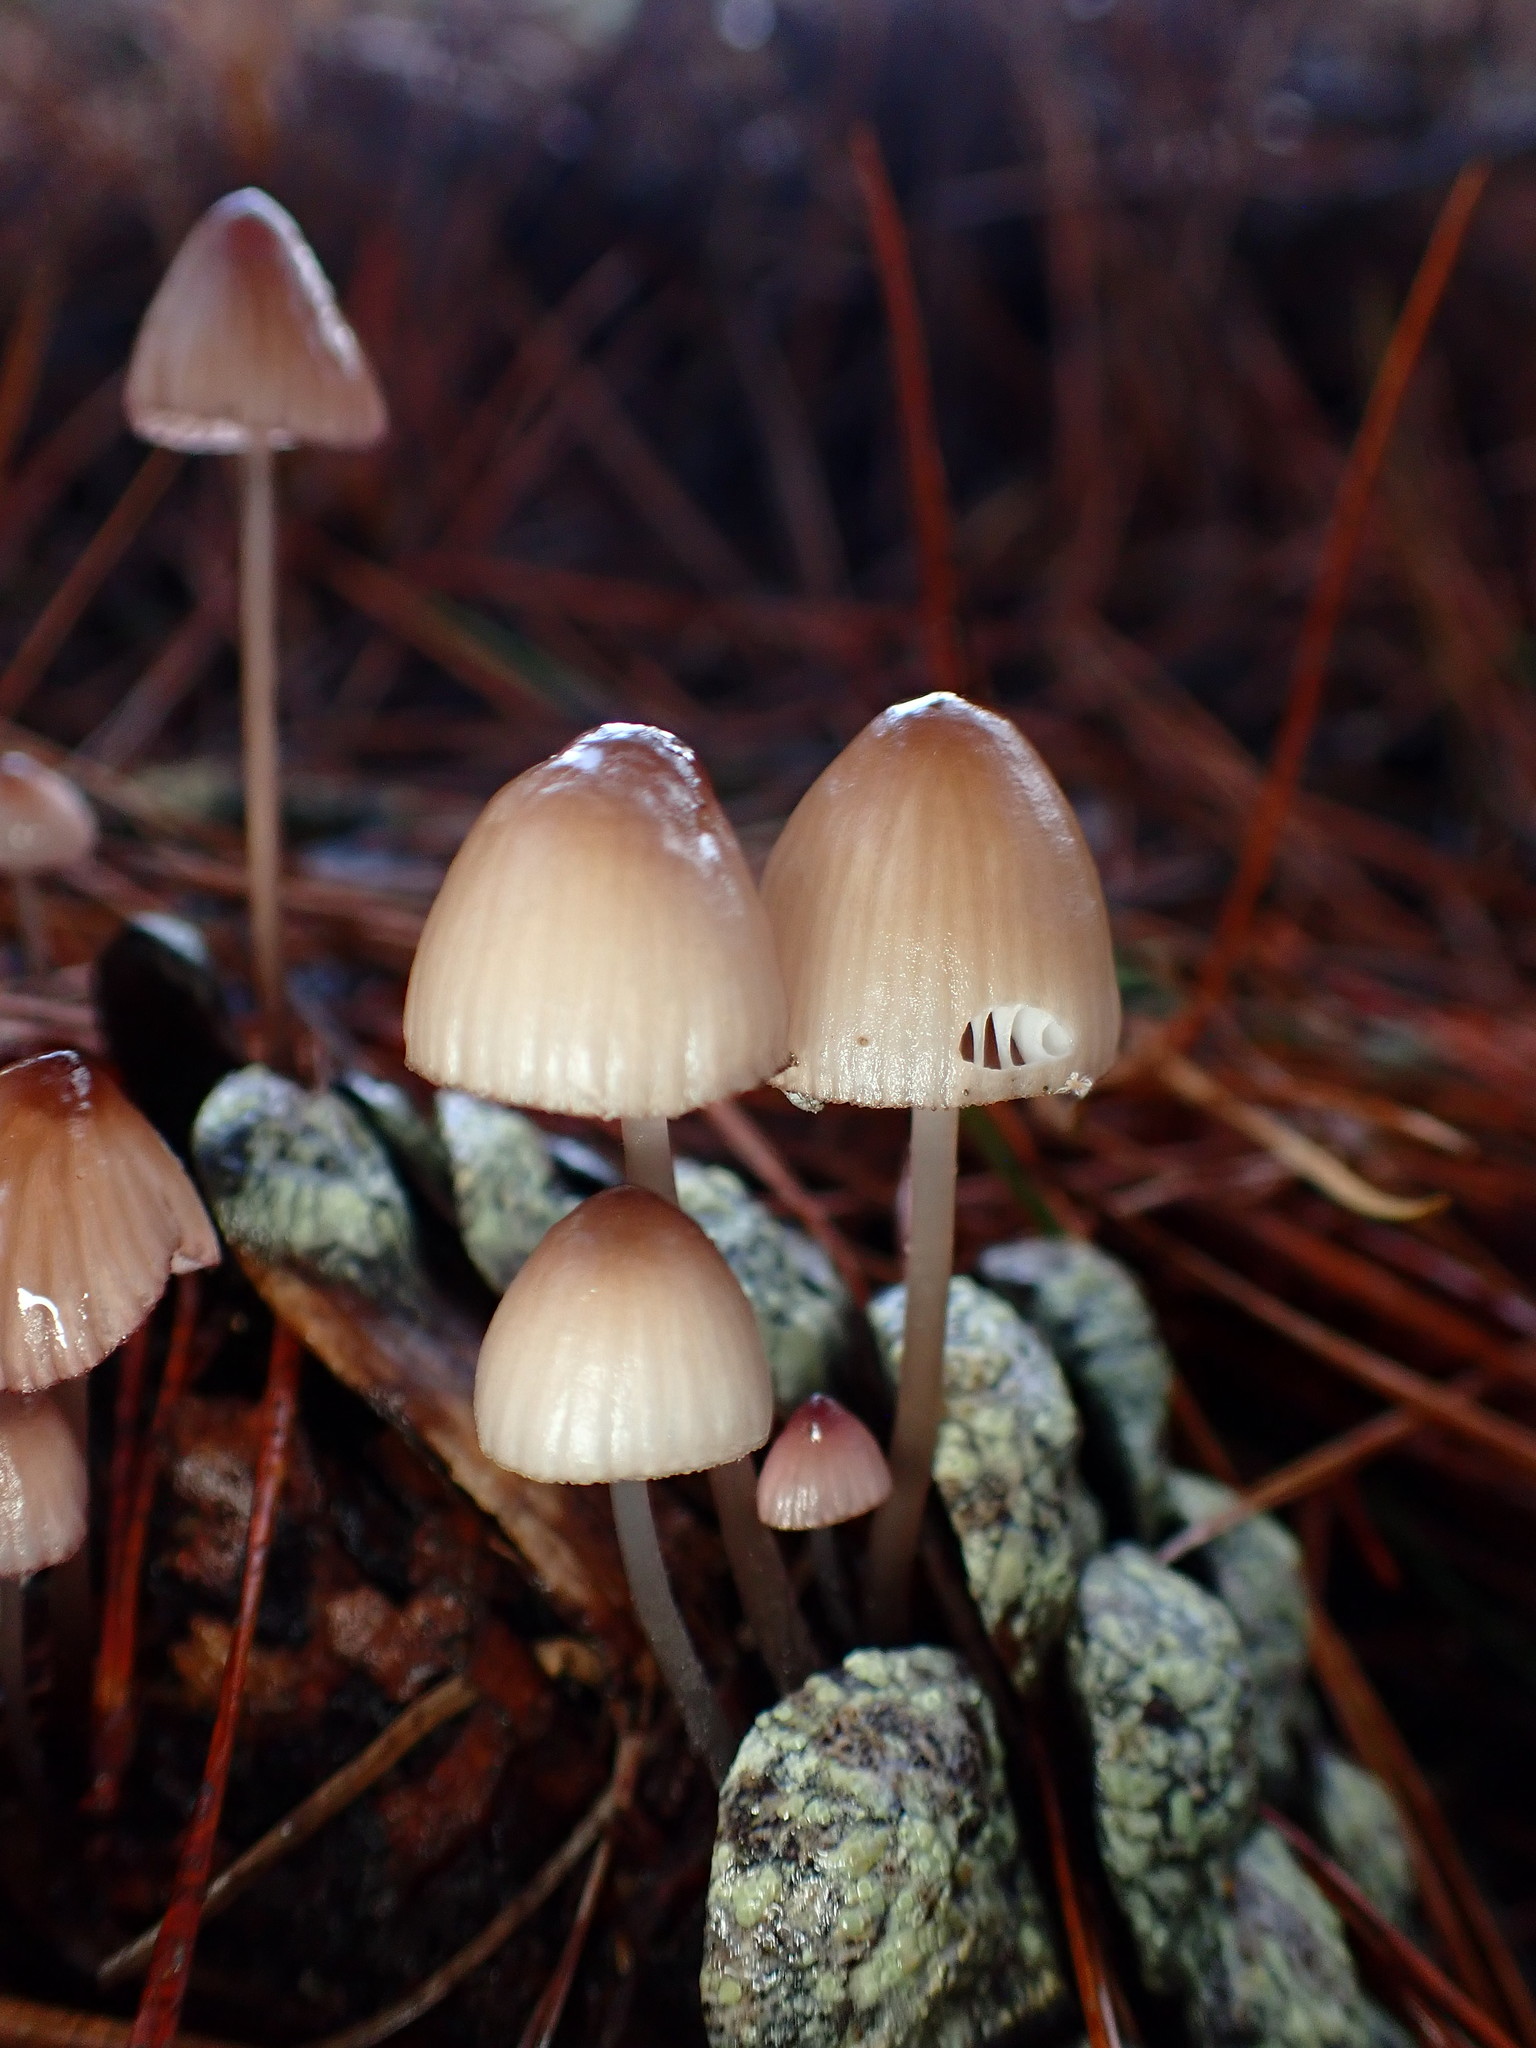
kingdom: Fungi
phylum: Basidiomycota
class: Agaricomycetes
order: Agaricales
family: Mycenaceae
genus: Mycena
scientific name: Mycena purpureofusca
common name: Purple edge bonnet
